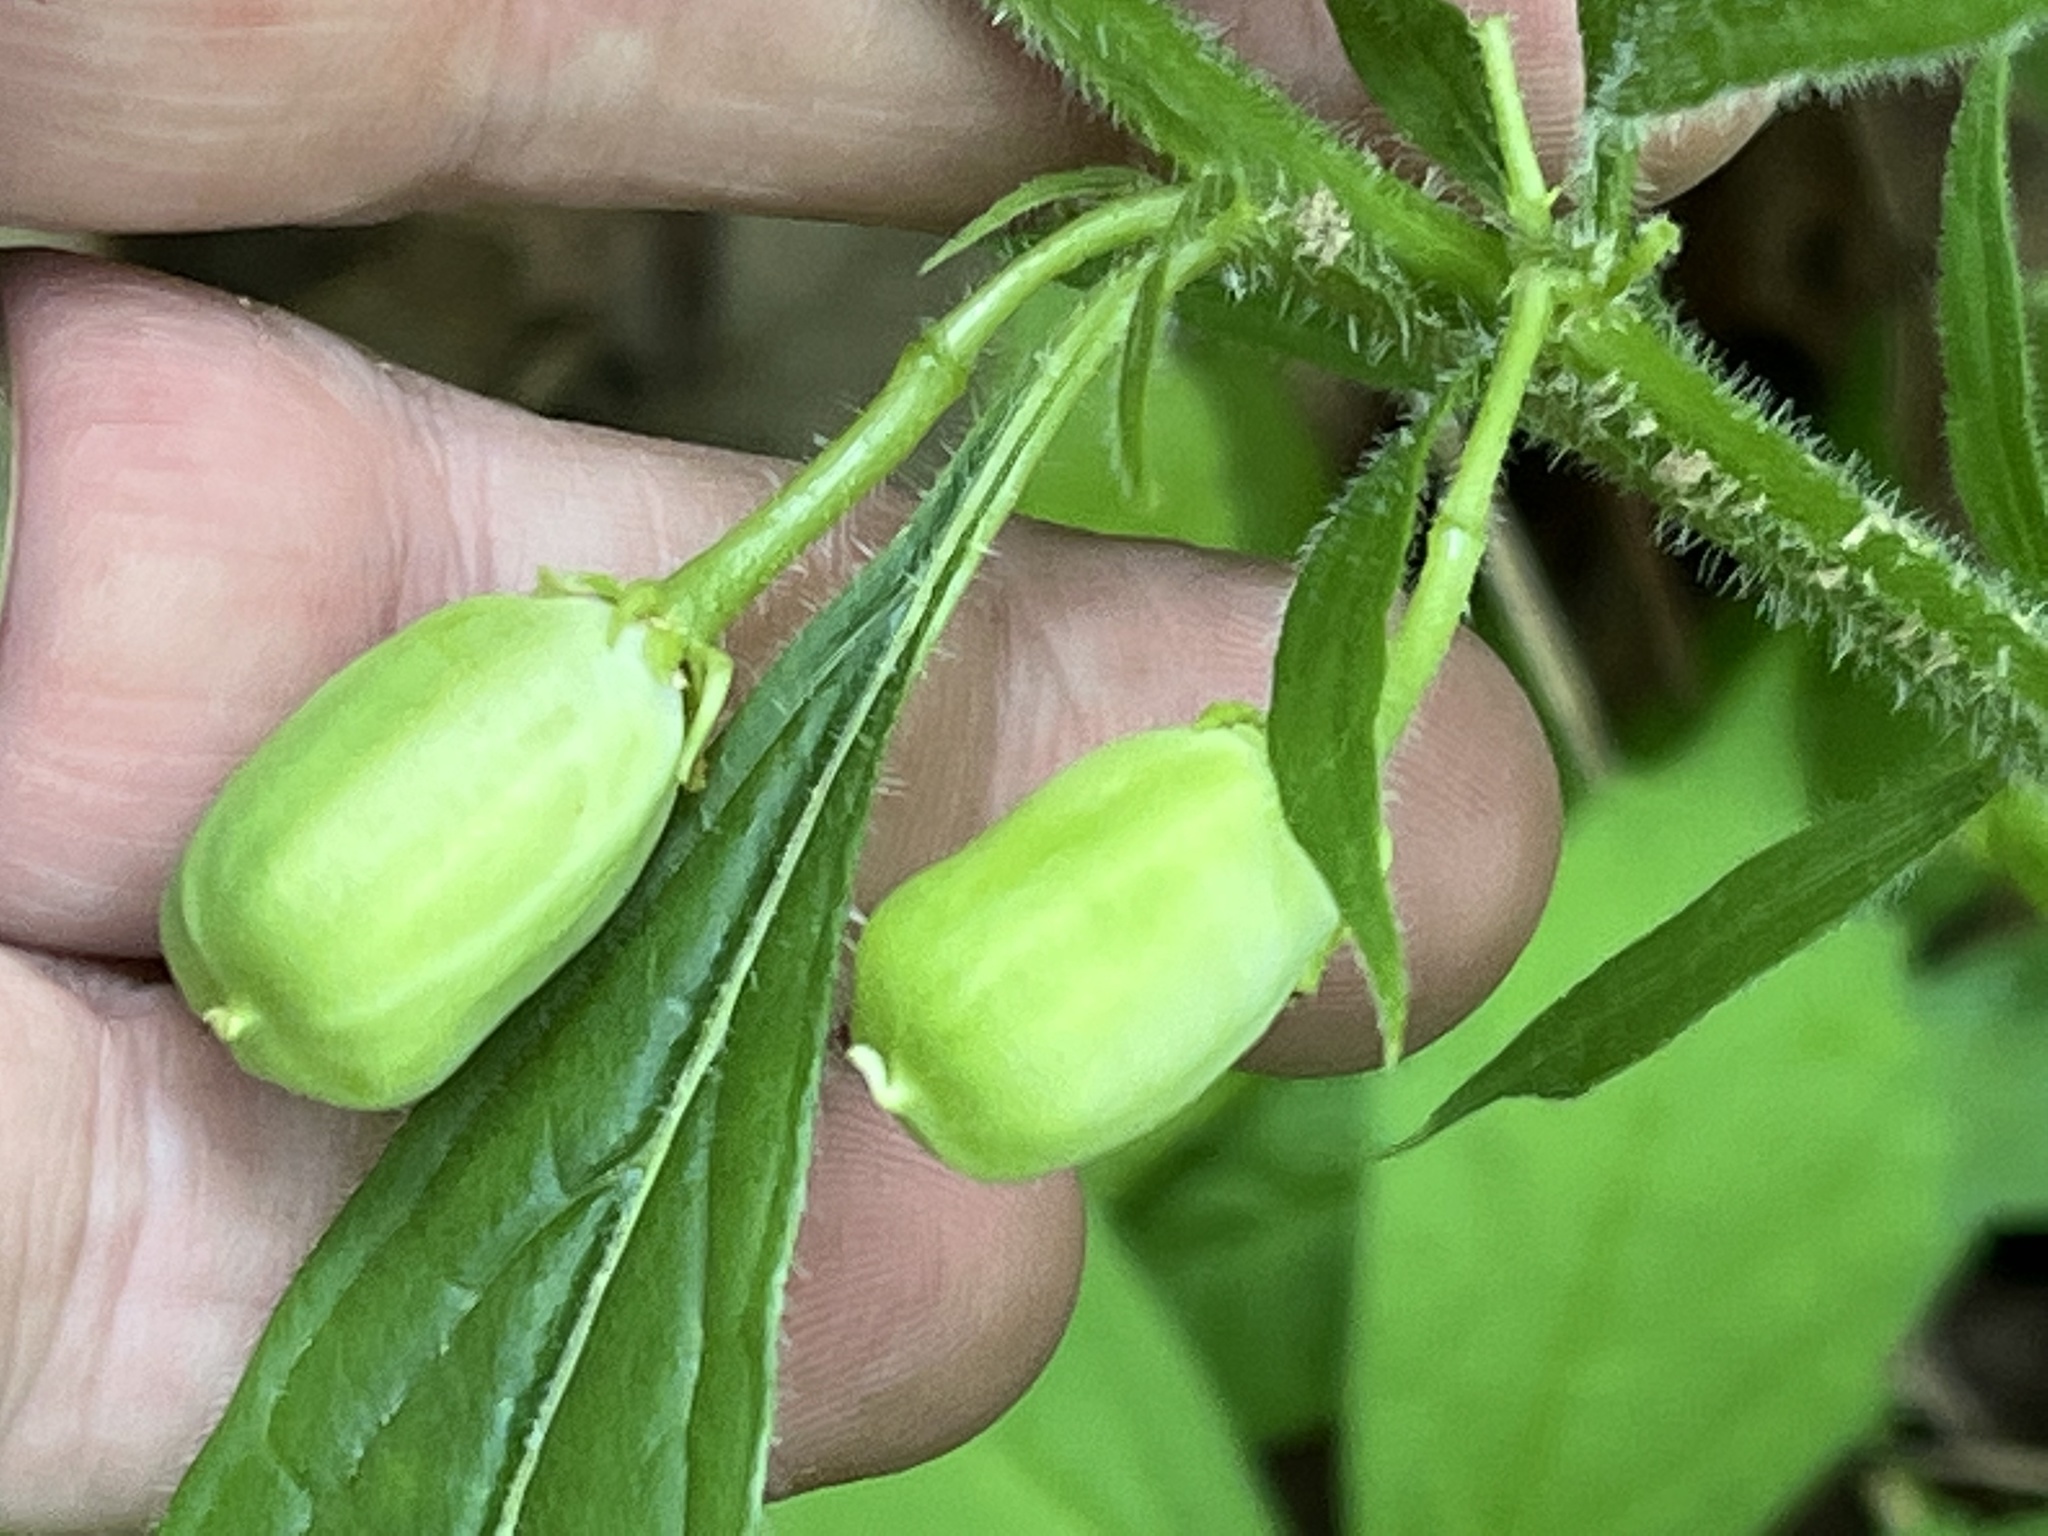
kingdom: Plantae
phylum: Tracheophyta
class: Magnoliopsida
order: Malpighiales
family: Violaceae
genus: Cubelium
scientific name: Cubelium concolor
